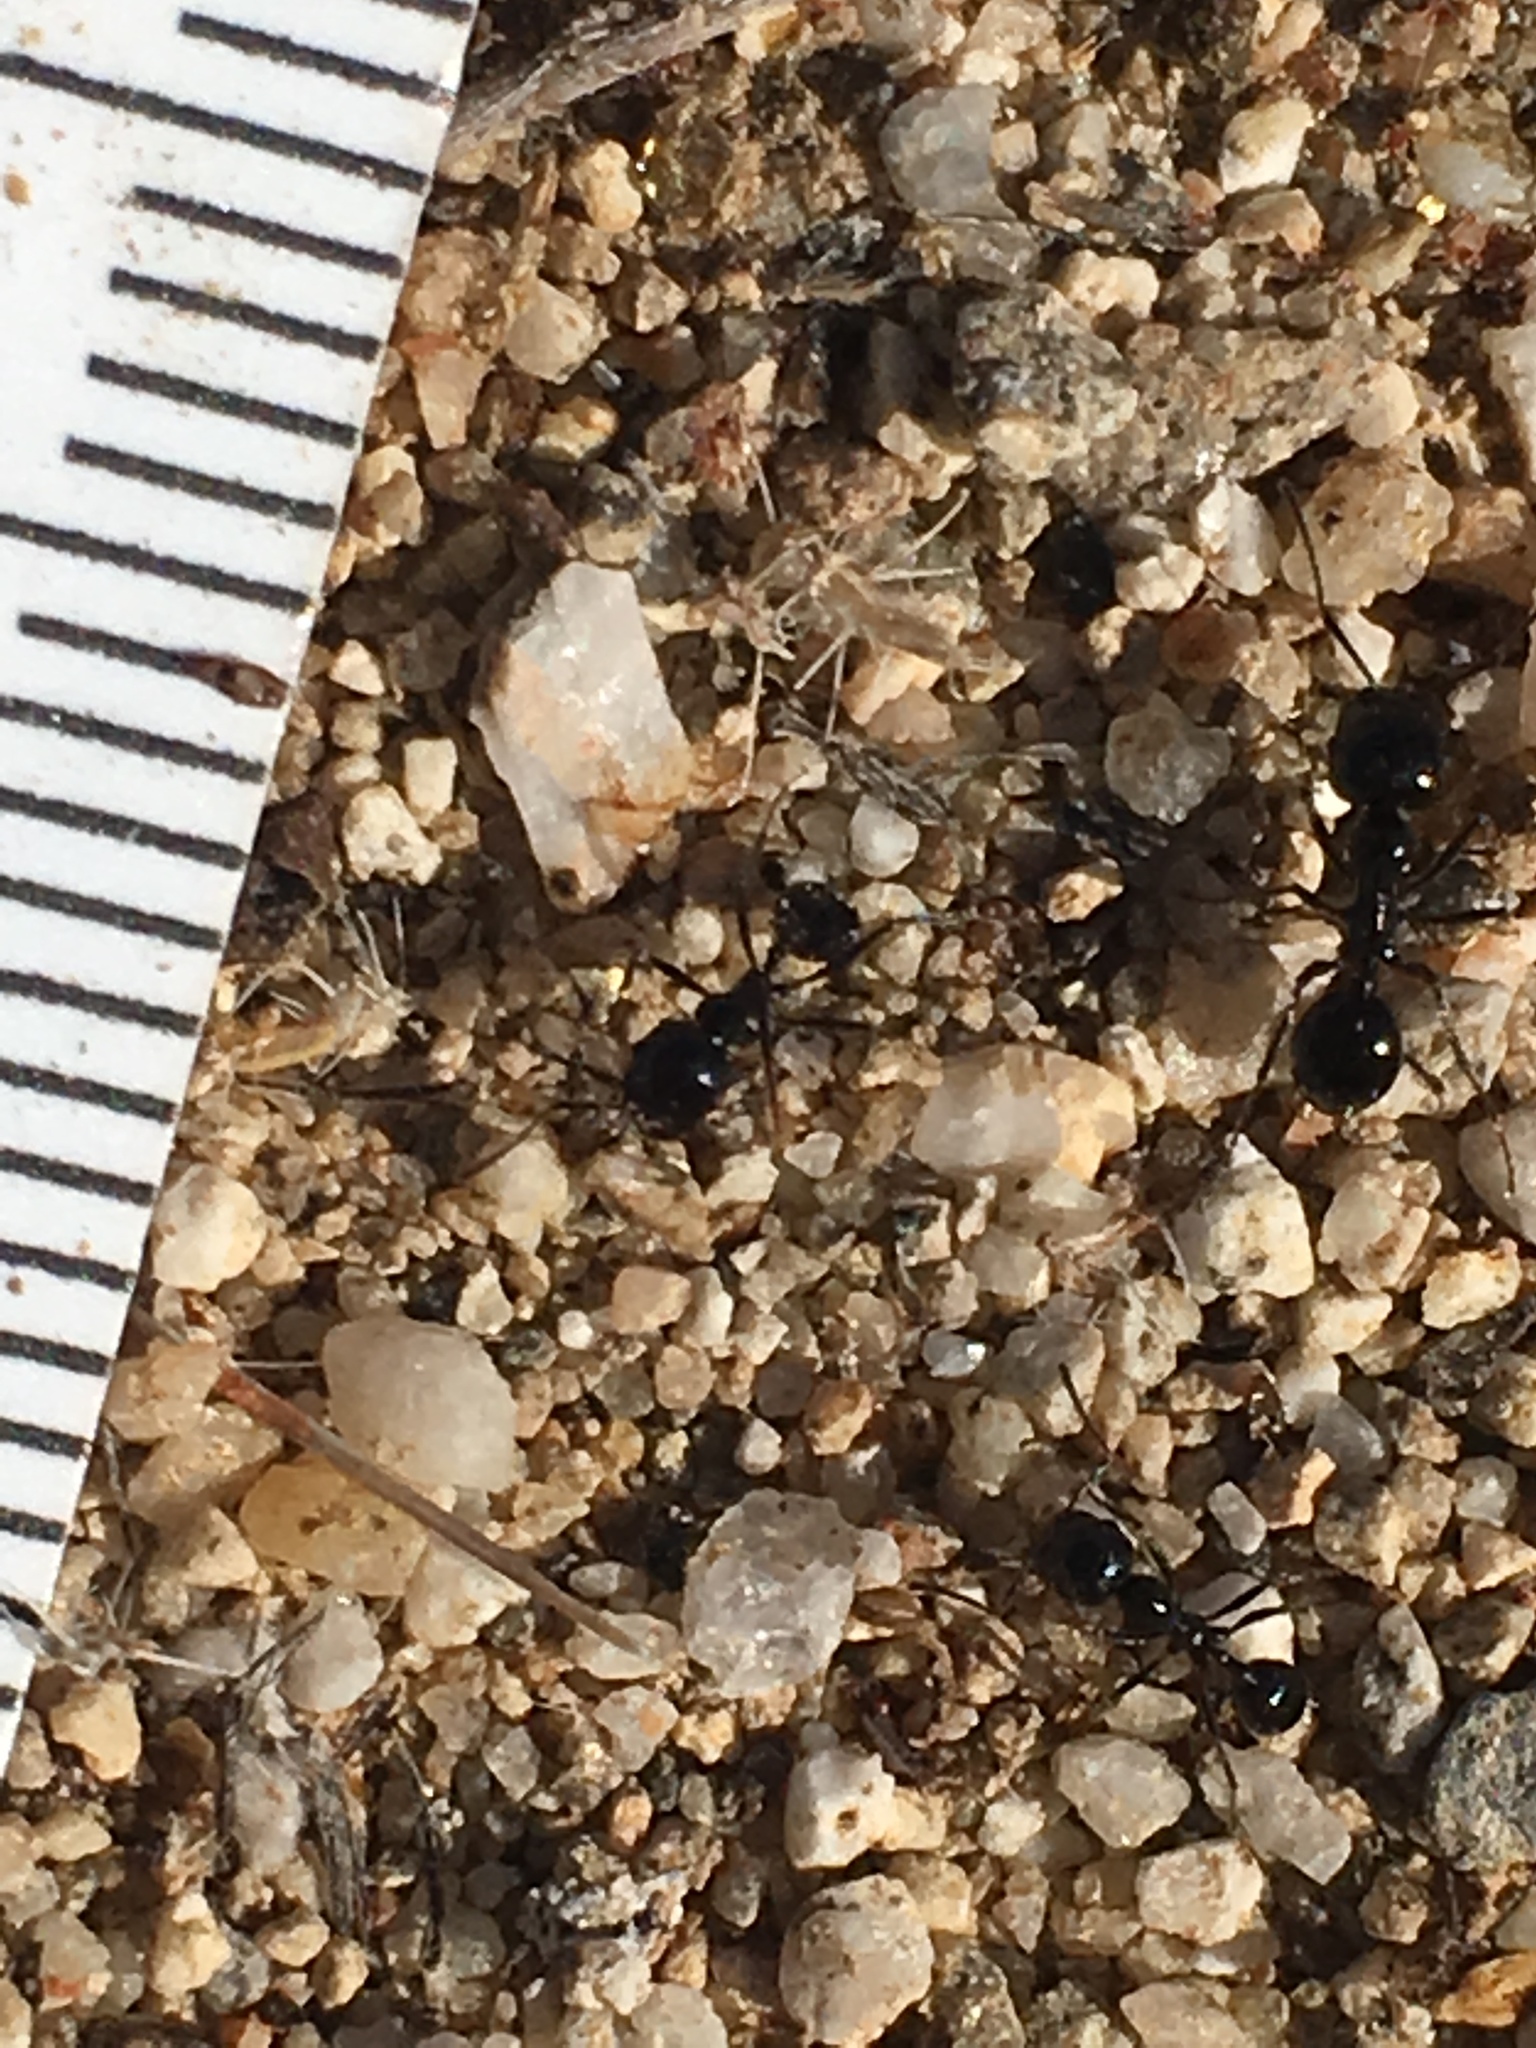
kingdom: Animalia
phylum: Arthropoda
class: Insecta
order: Hymenoptera
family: Formicidae
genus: Messor
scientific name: Messor pergandei
